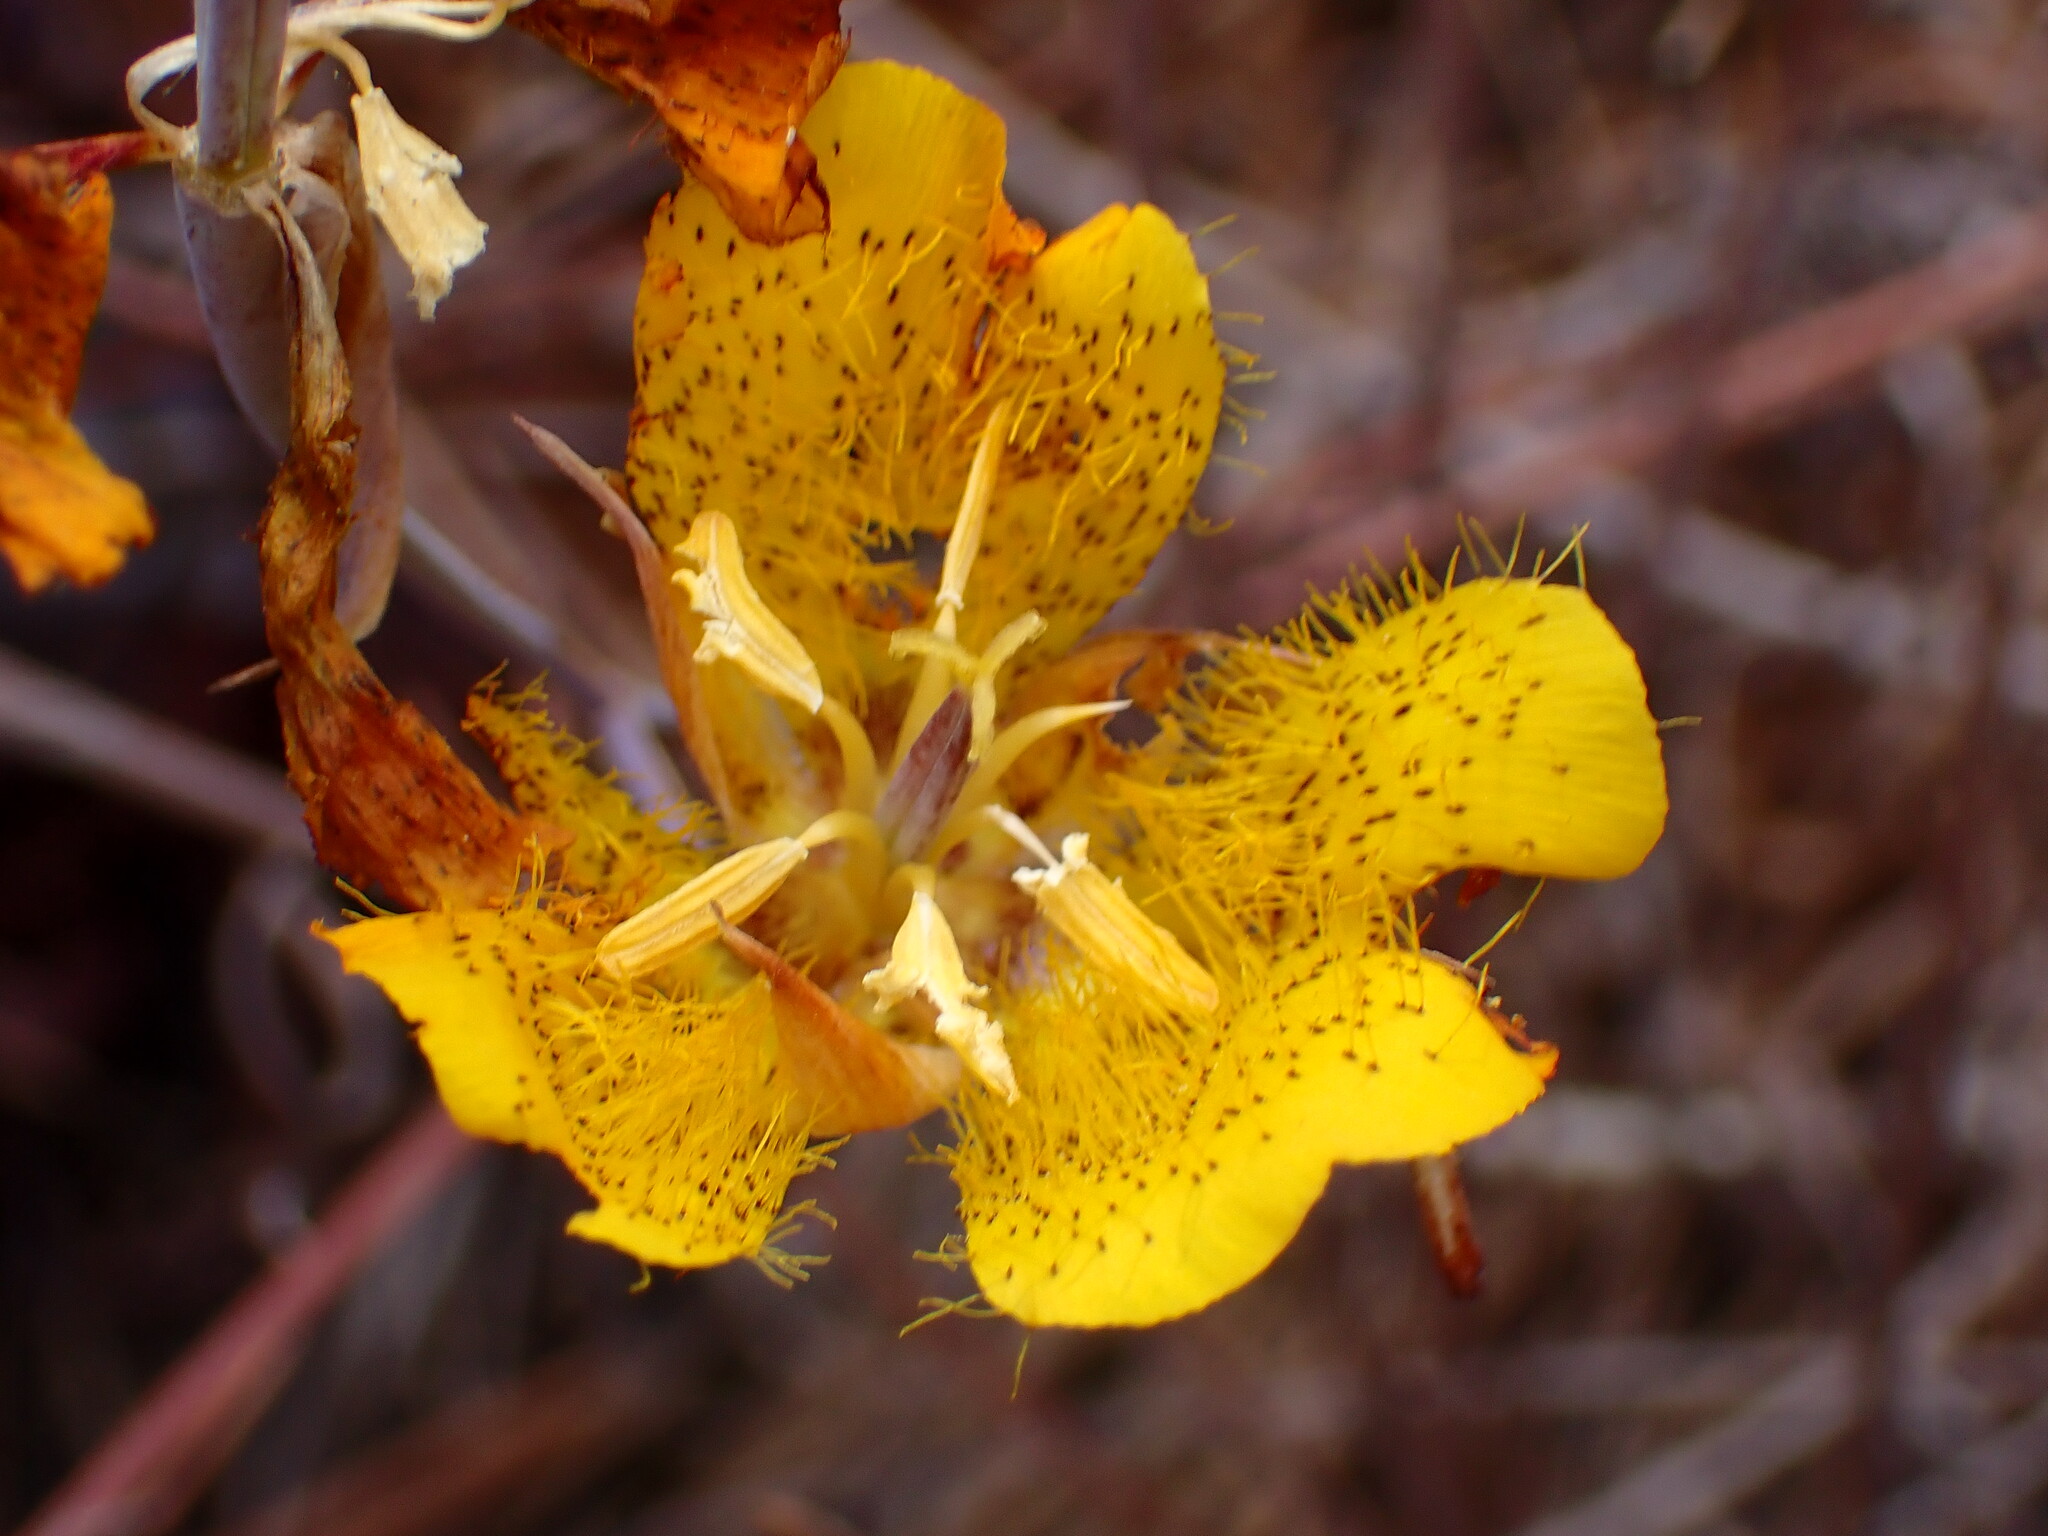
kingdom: Plantae
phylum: Tracheophyta
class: Liliopsida
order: Liliales
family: Liliaceae
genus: Calochortus
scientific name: Calochortus weedii
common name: Weed's mariposa-lily
